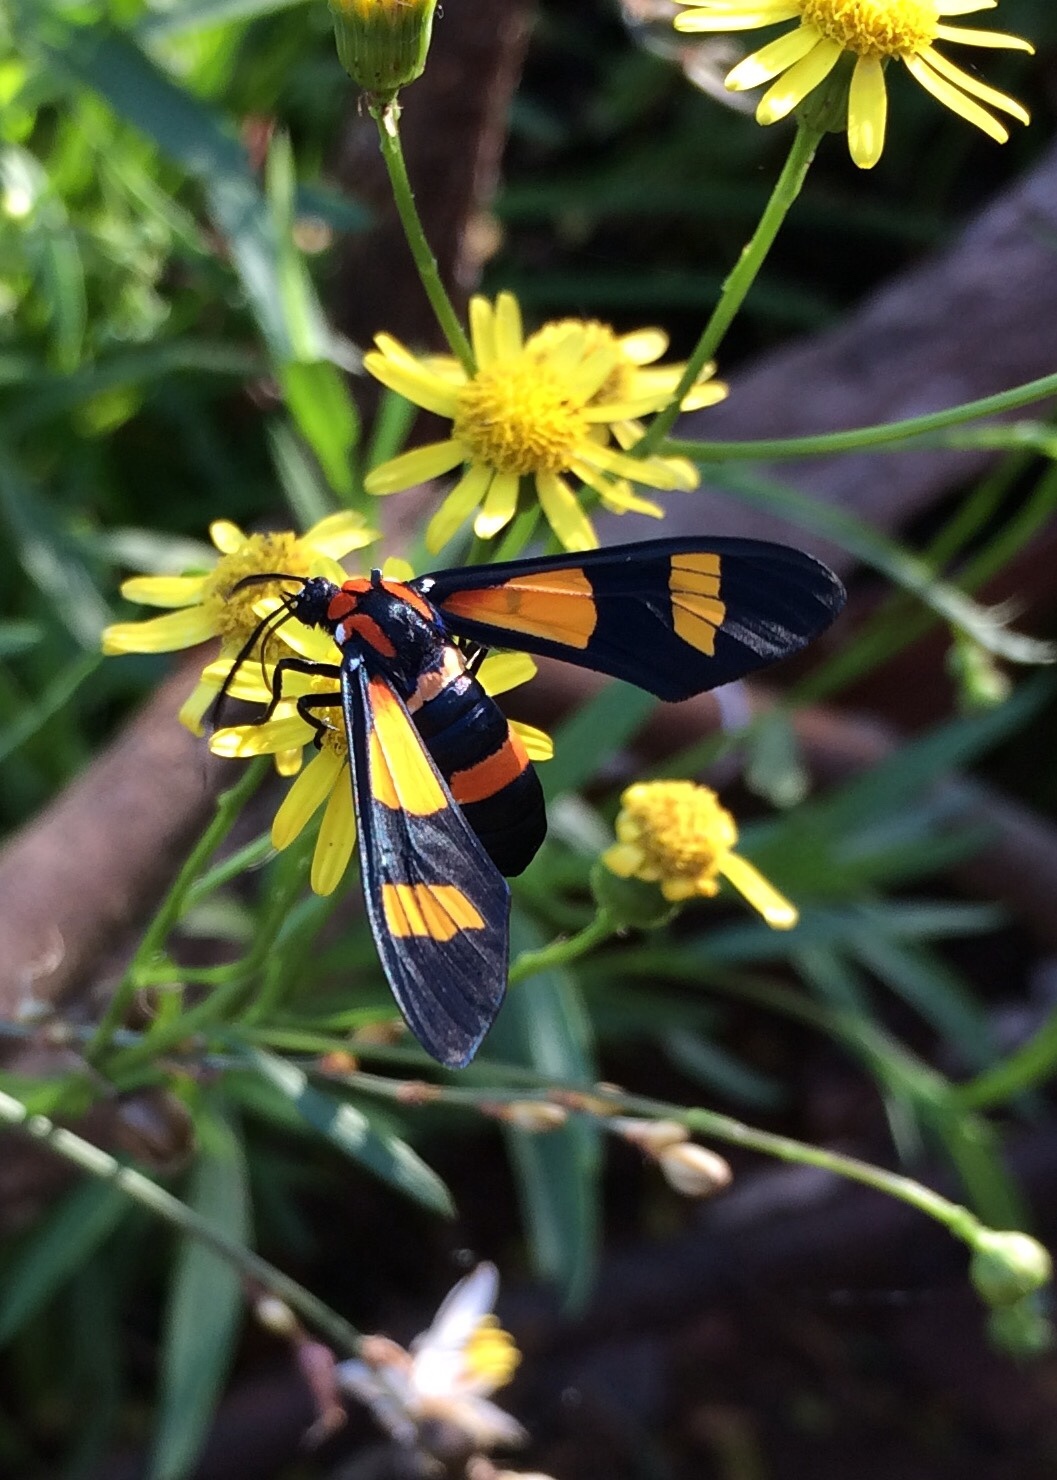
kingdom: Animalia
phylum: Arthropoda
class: Insecta
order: Lepidoptera
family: Erebidae
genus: Euchromia
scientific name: Euchromia amoena
